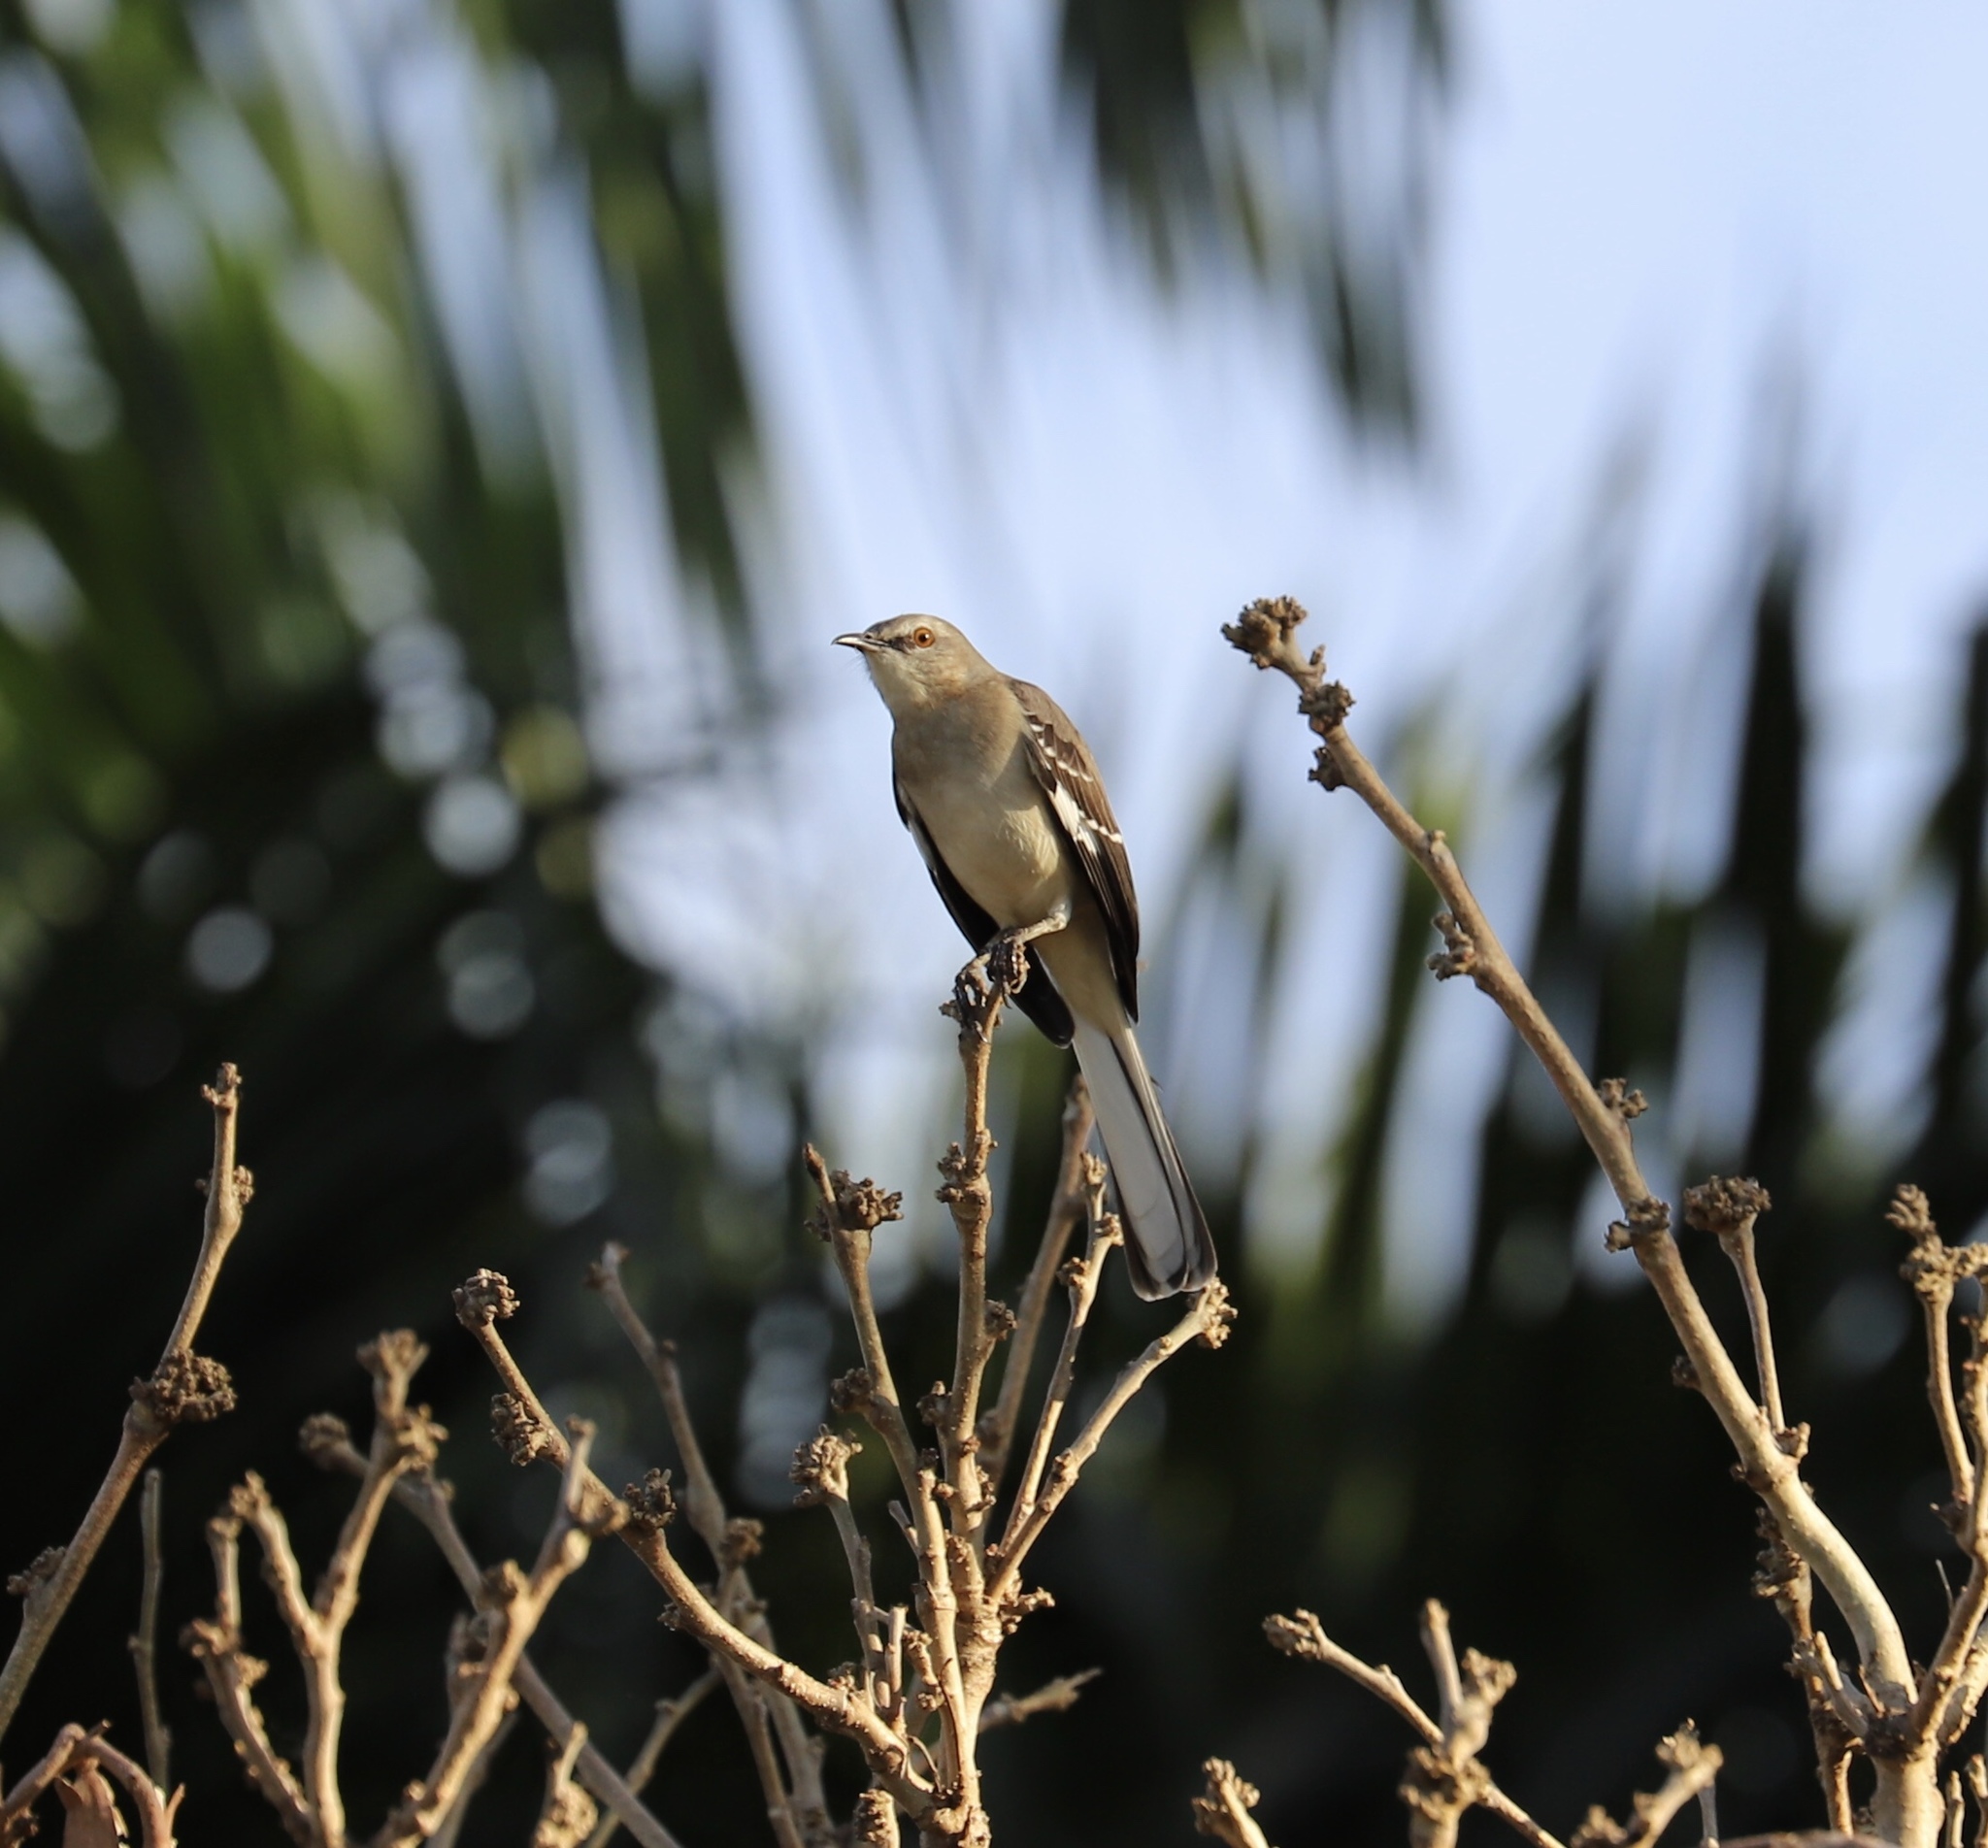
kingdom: Animalia
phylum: Chordata
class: Aves
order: Passeriformes
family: Mimidae
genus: Mimus
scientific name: Mimus polyglottos
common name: Northern mockingbird
